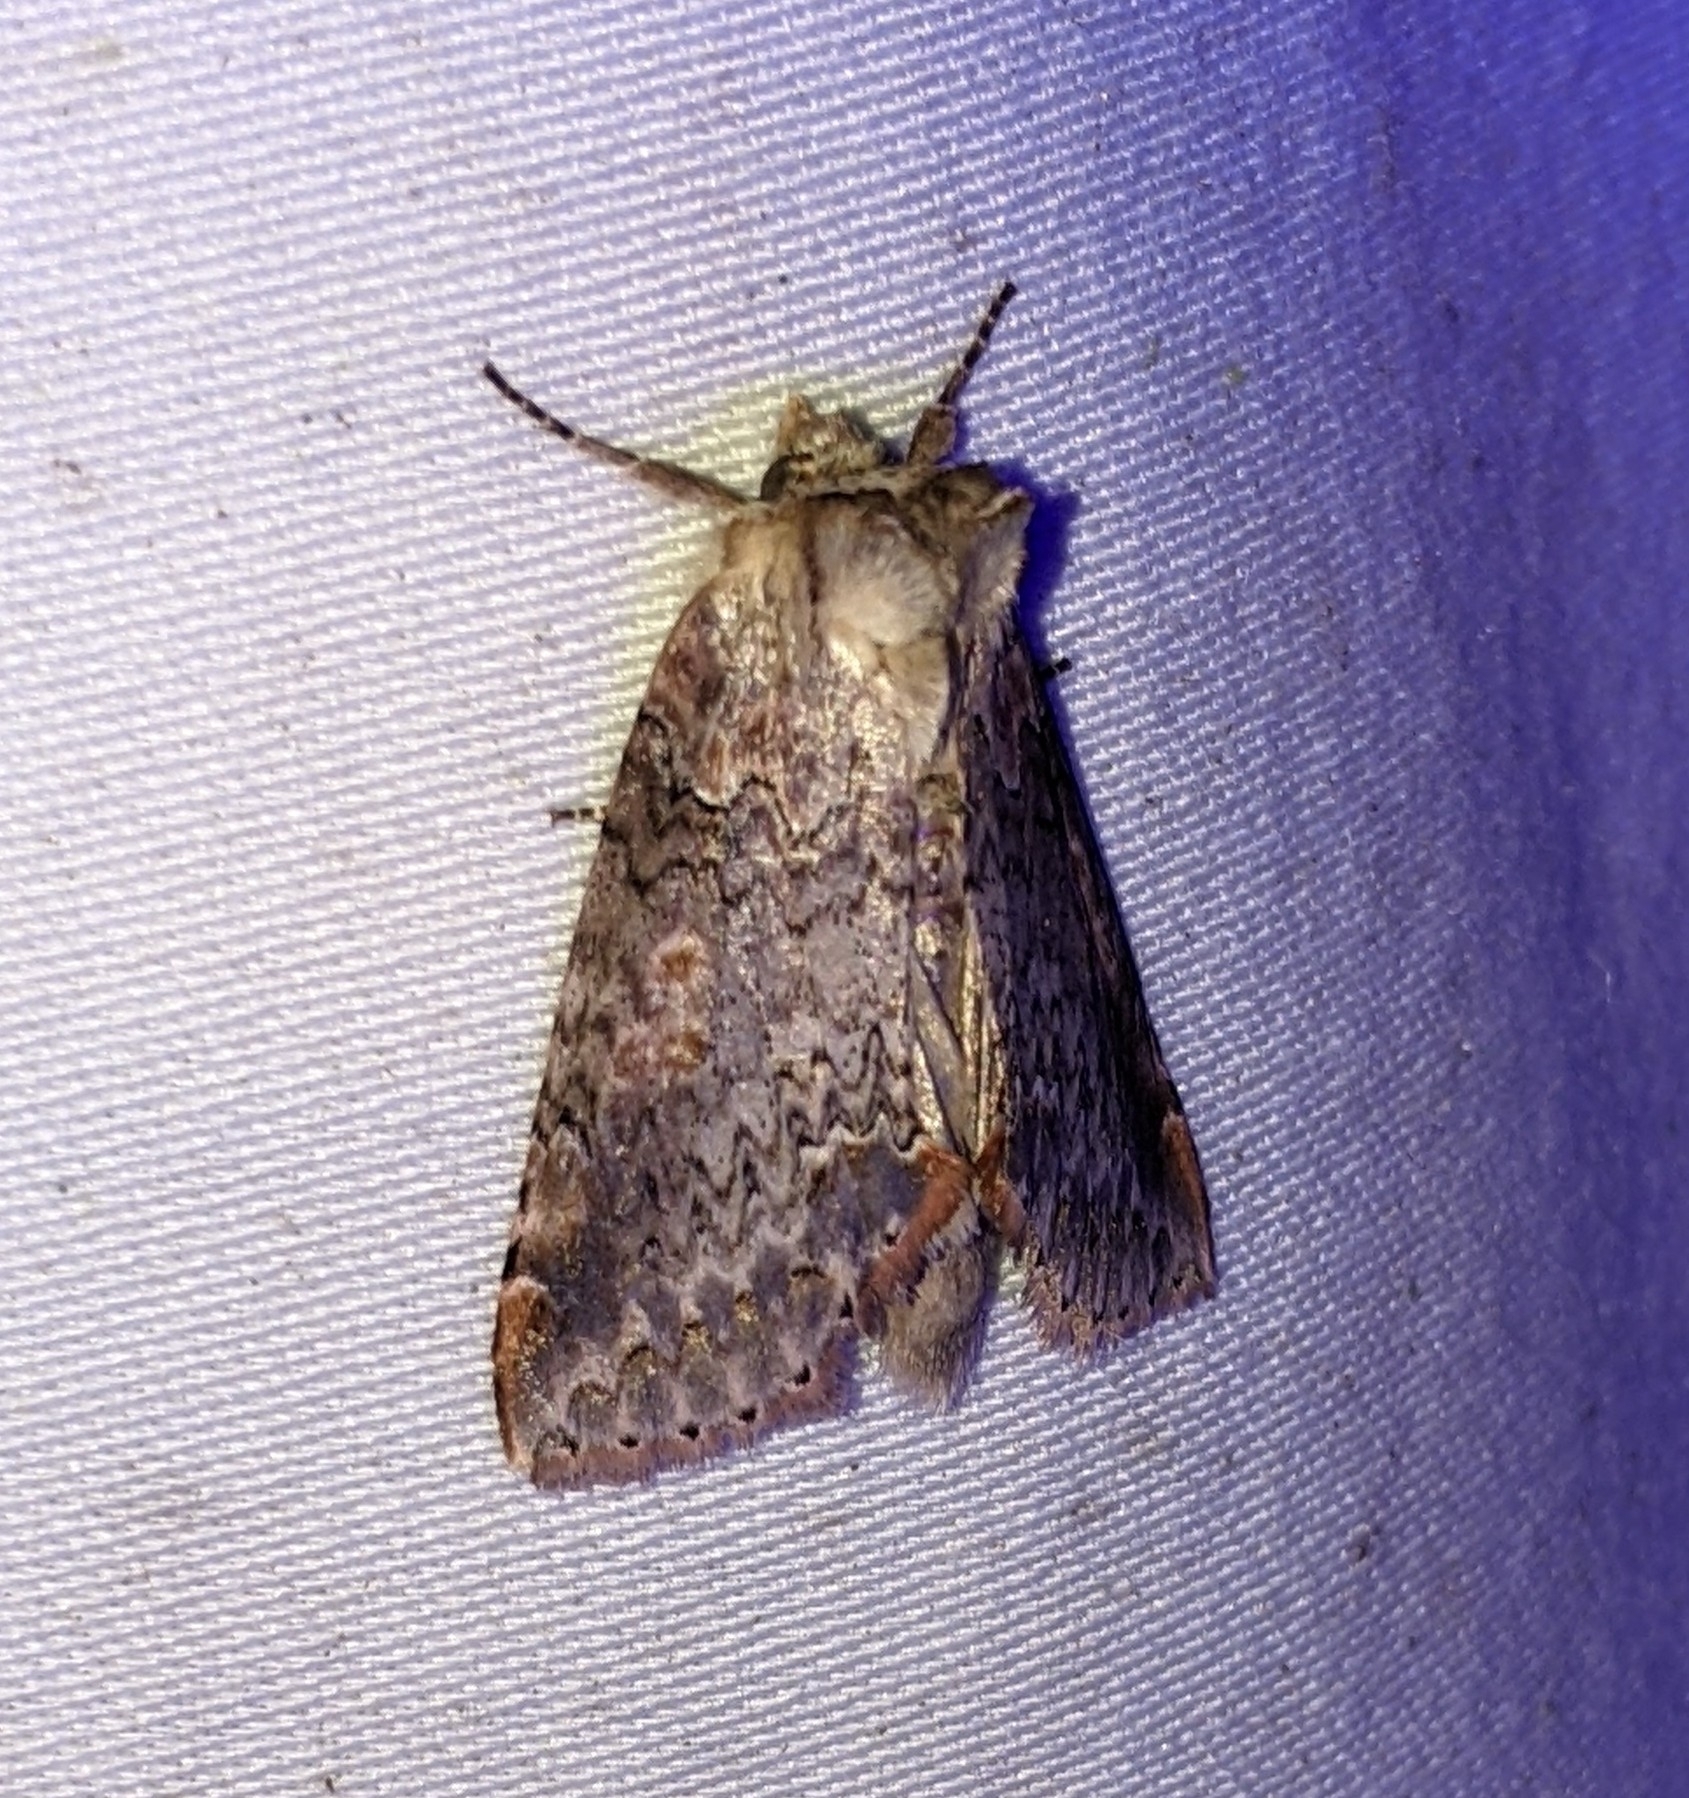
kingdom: Animalia
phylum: Arthropoda
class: Insecta
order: Lepidoptera
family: Drepanidae
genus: Pseudothyatira
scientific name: Pseudothyatira cymatophoroides
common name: Tufted thyatirid moth
